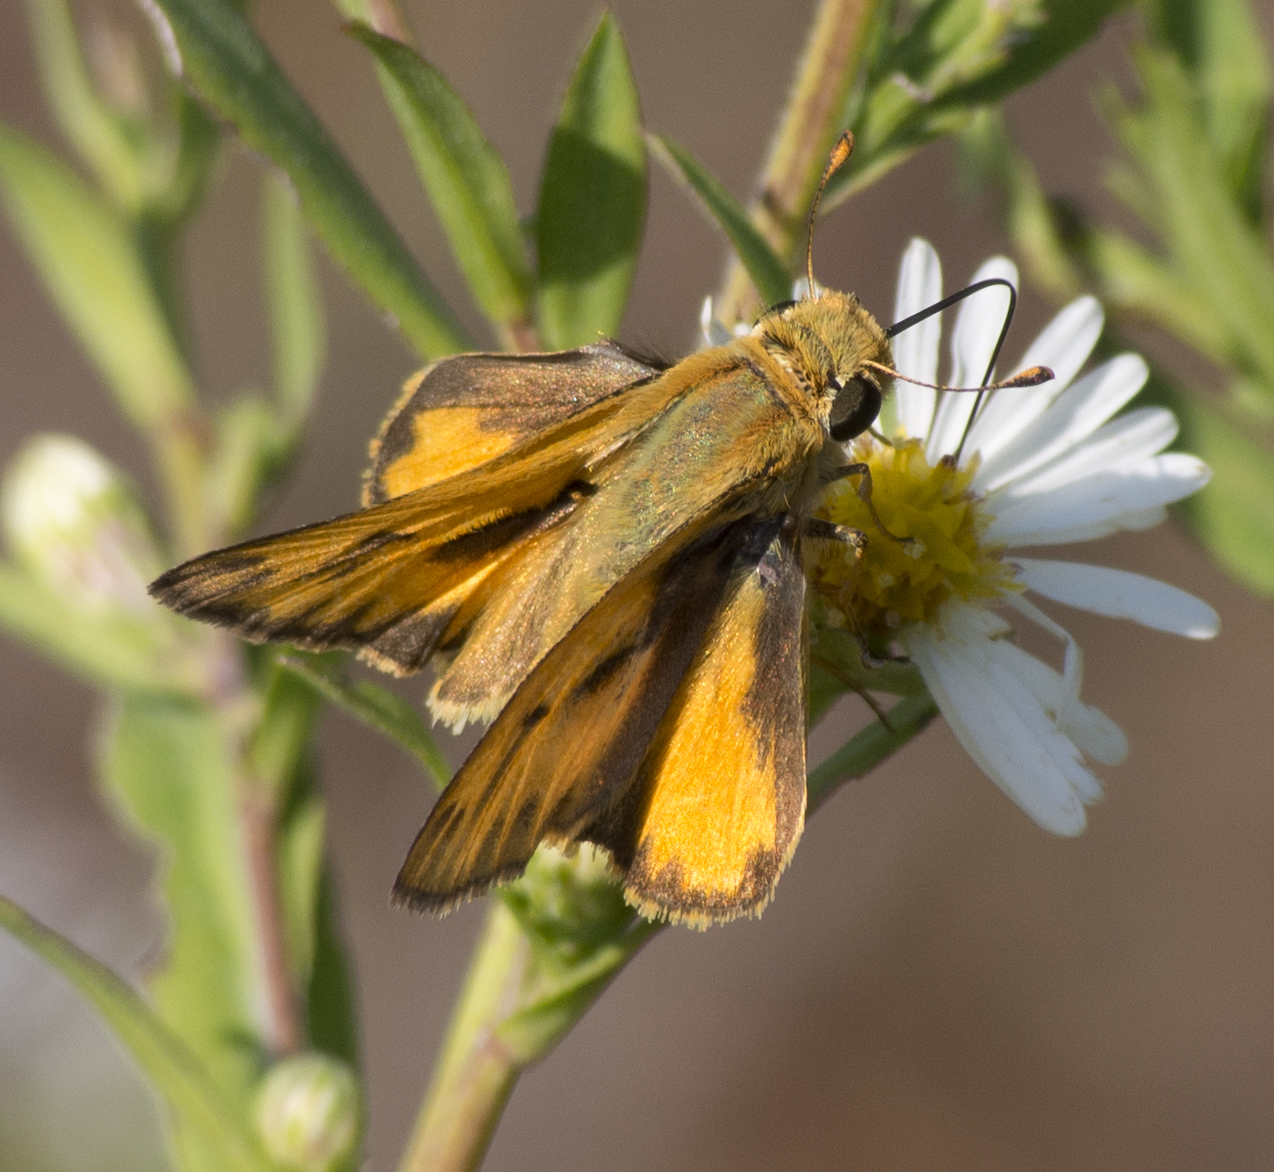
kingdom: Animalia
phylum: Arthropoda
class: Insecta
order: Lepidoptera
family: Hesperiidae
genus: Hylephila
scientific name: Hylephila phyleus
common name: Fiery skipper
